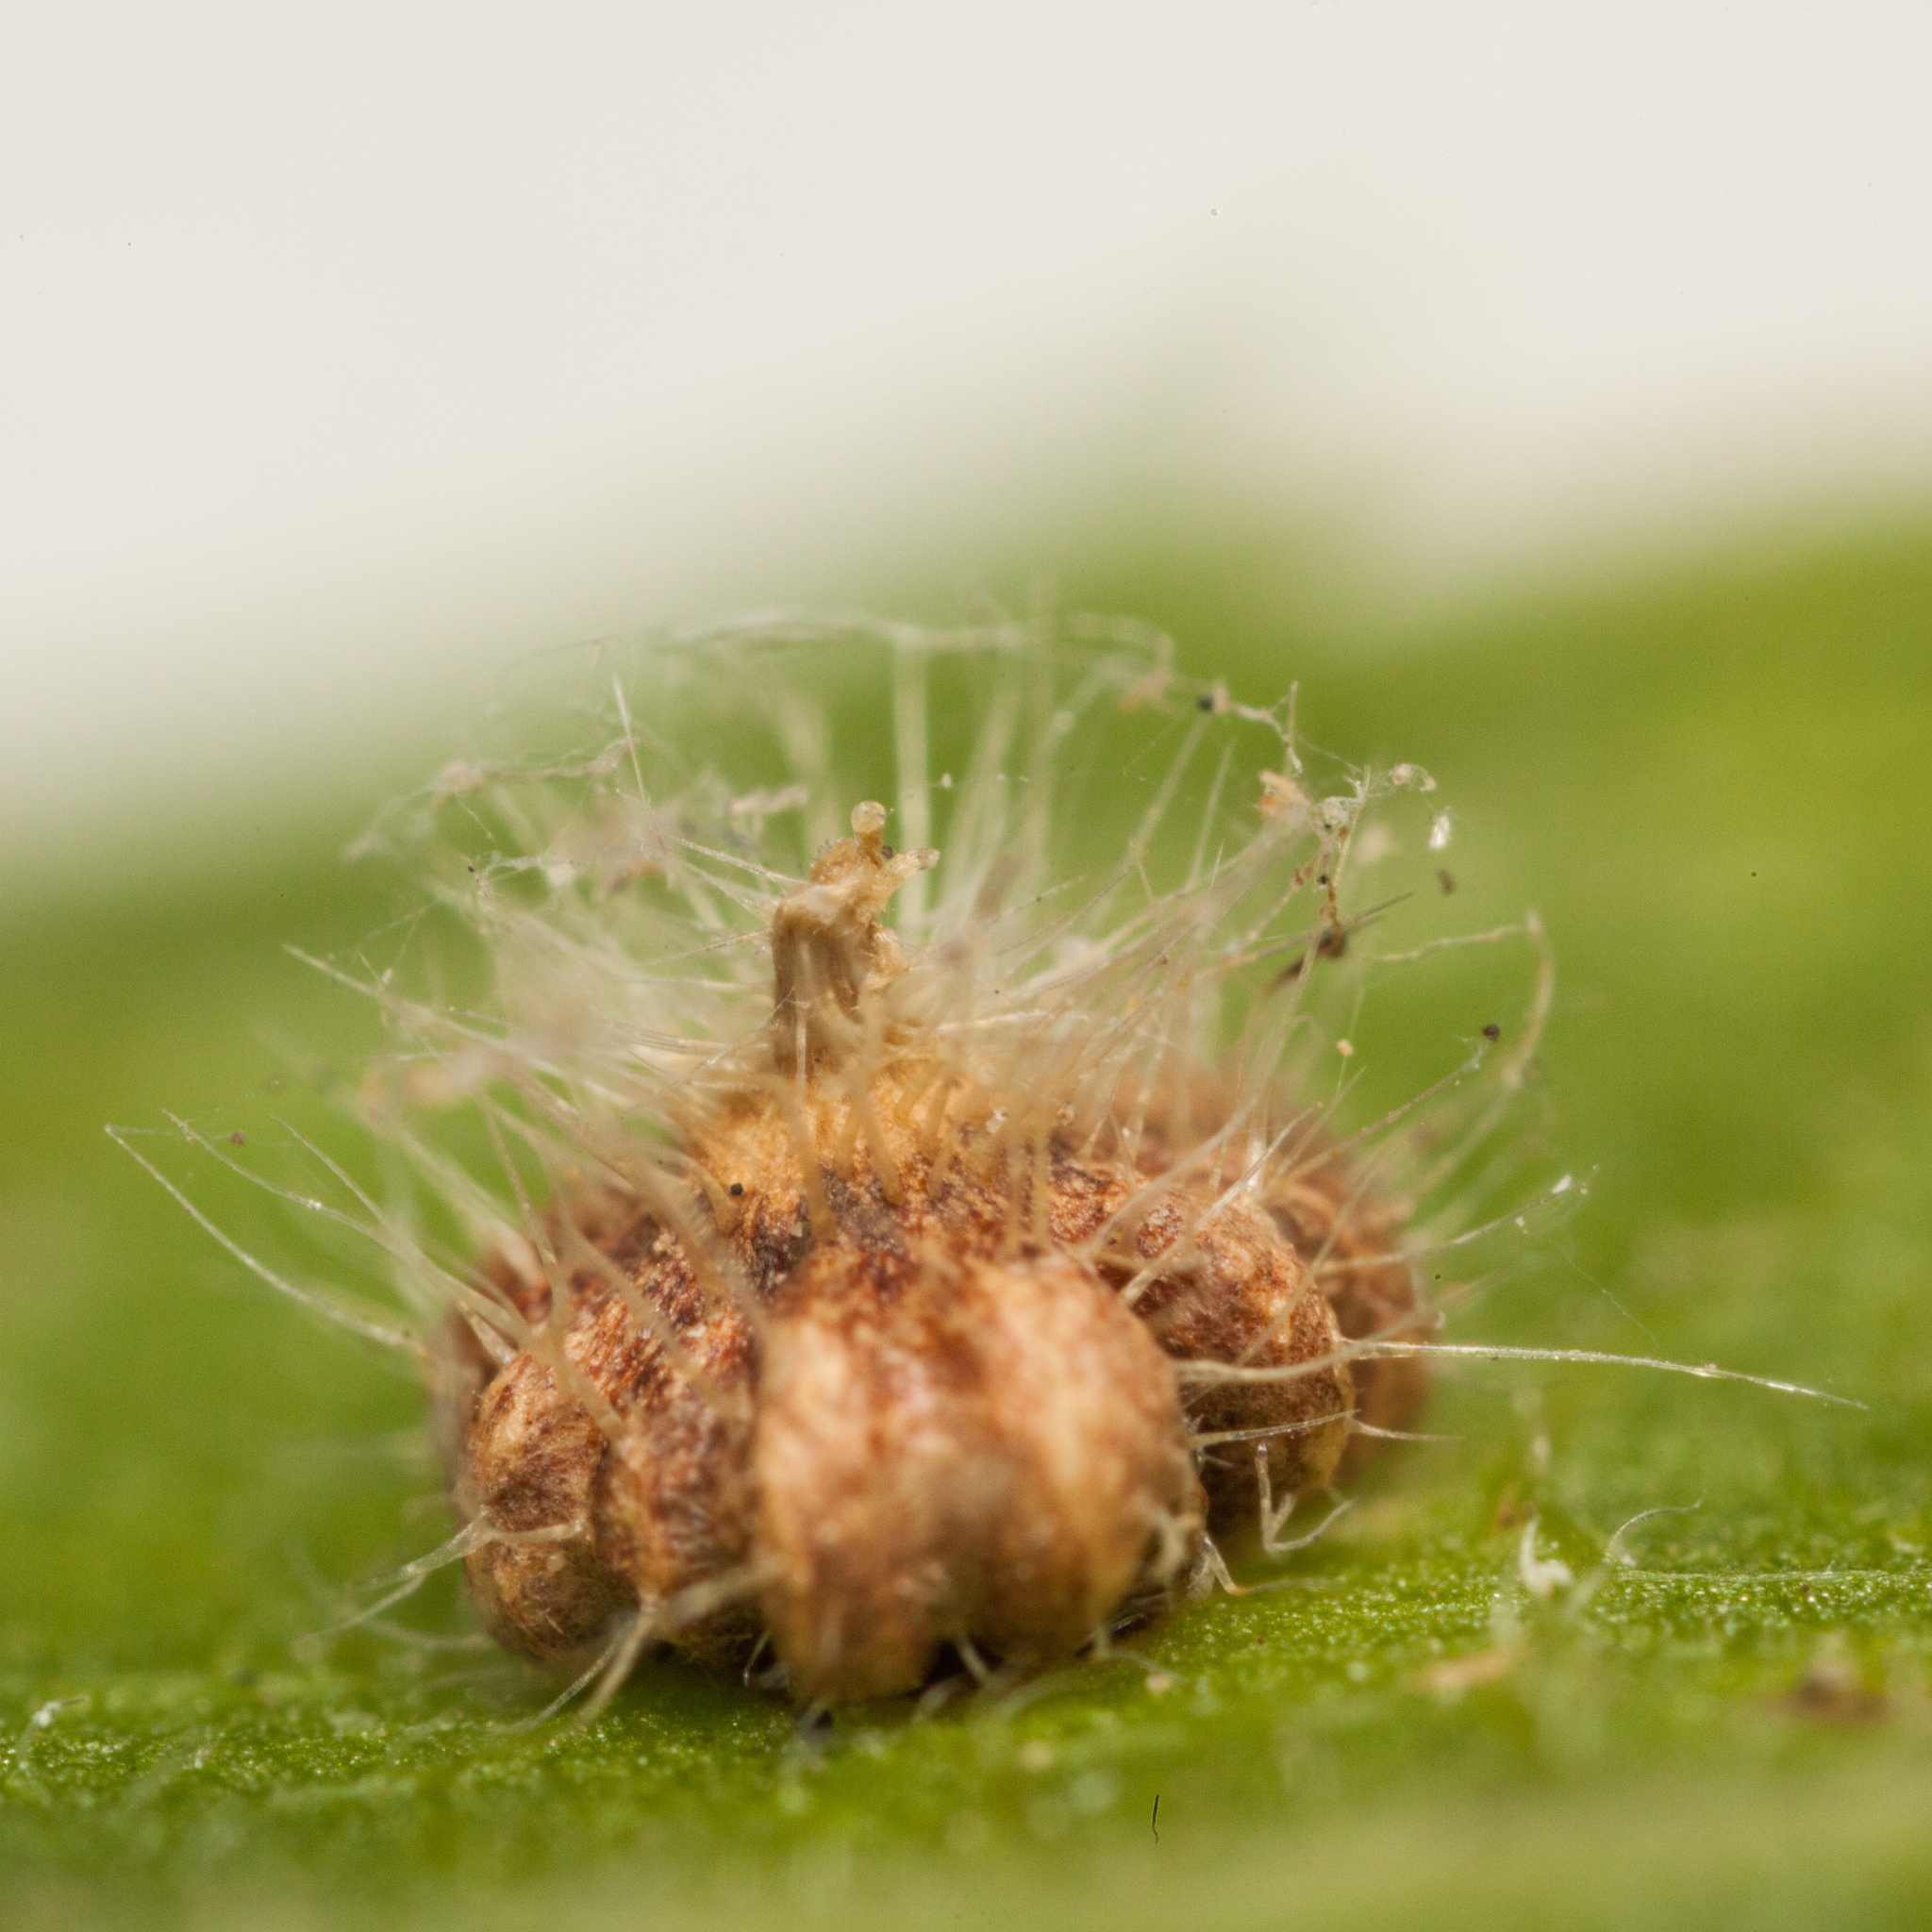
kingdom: Animalia
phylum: Arthropoda
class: Insecta
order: Diptera
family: Cecidomyiidae
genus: Celticecis
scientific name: Celticecis capsularis
